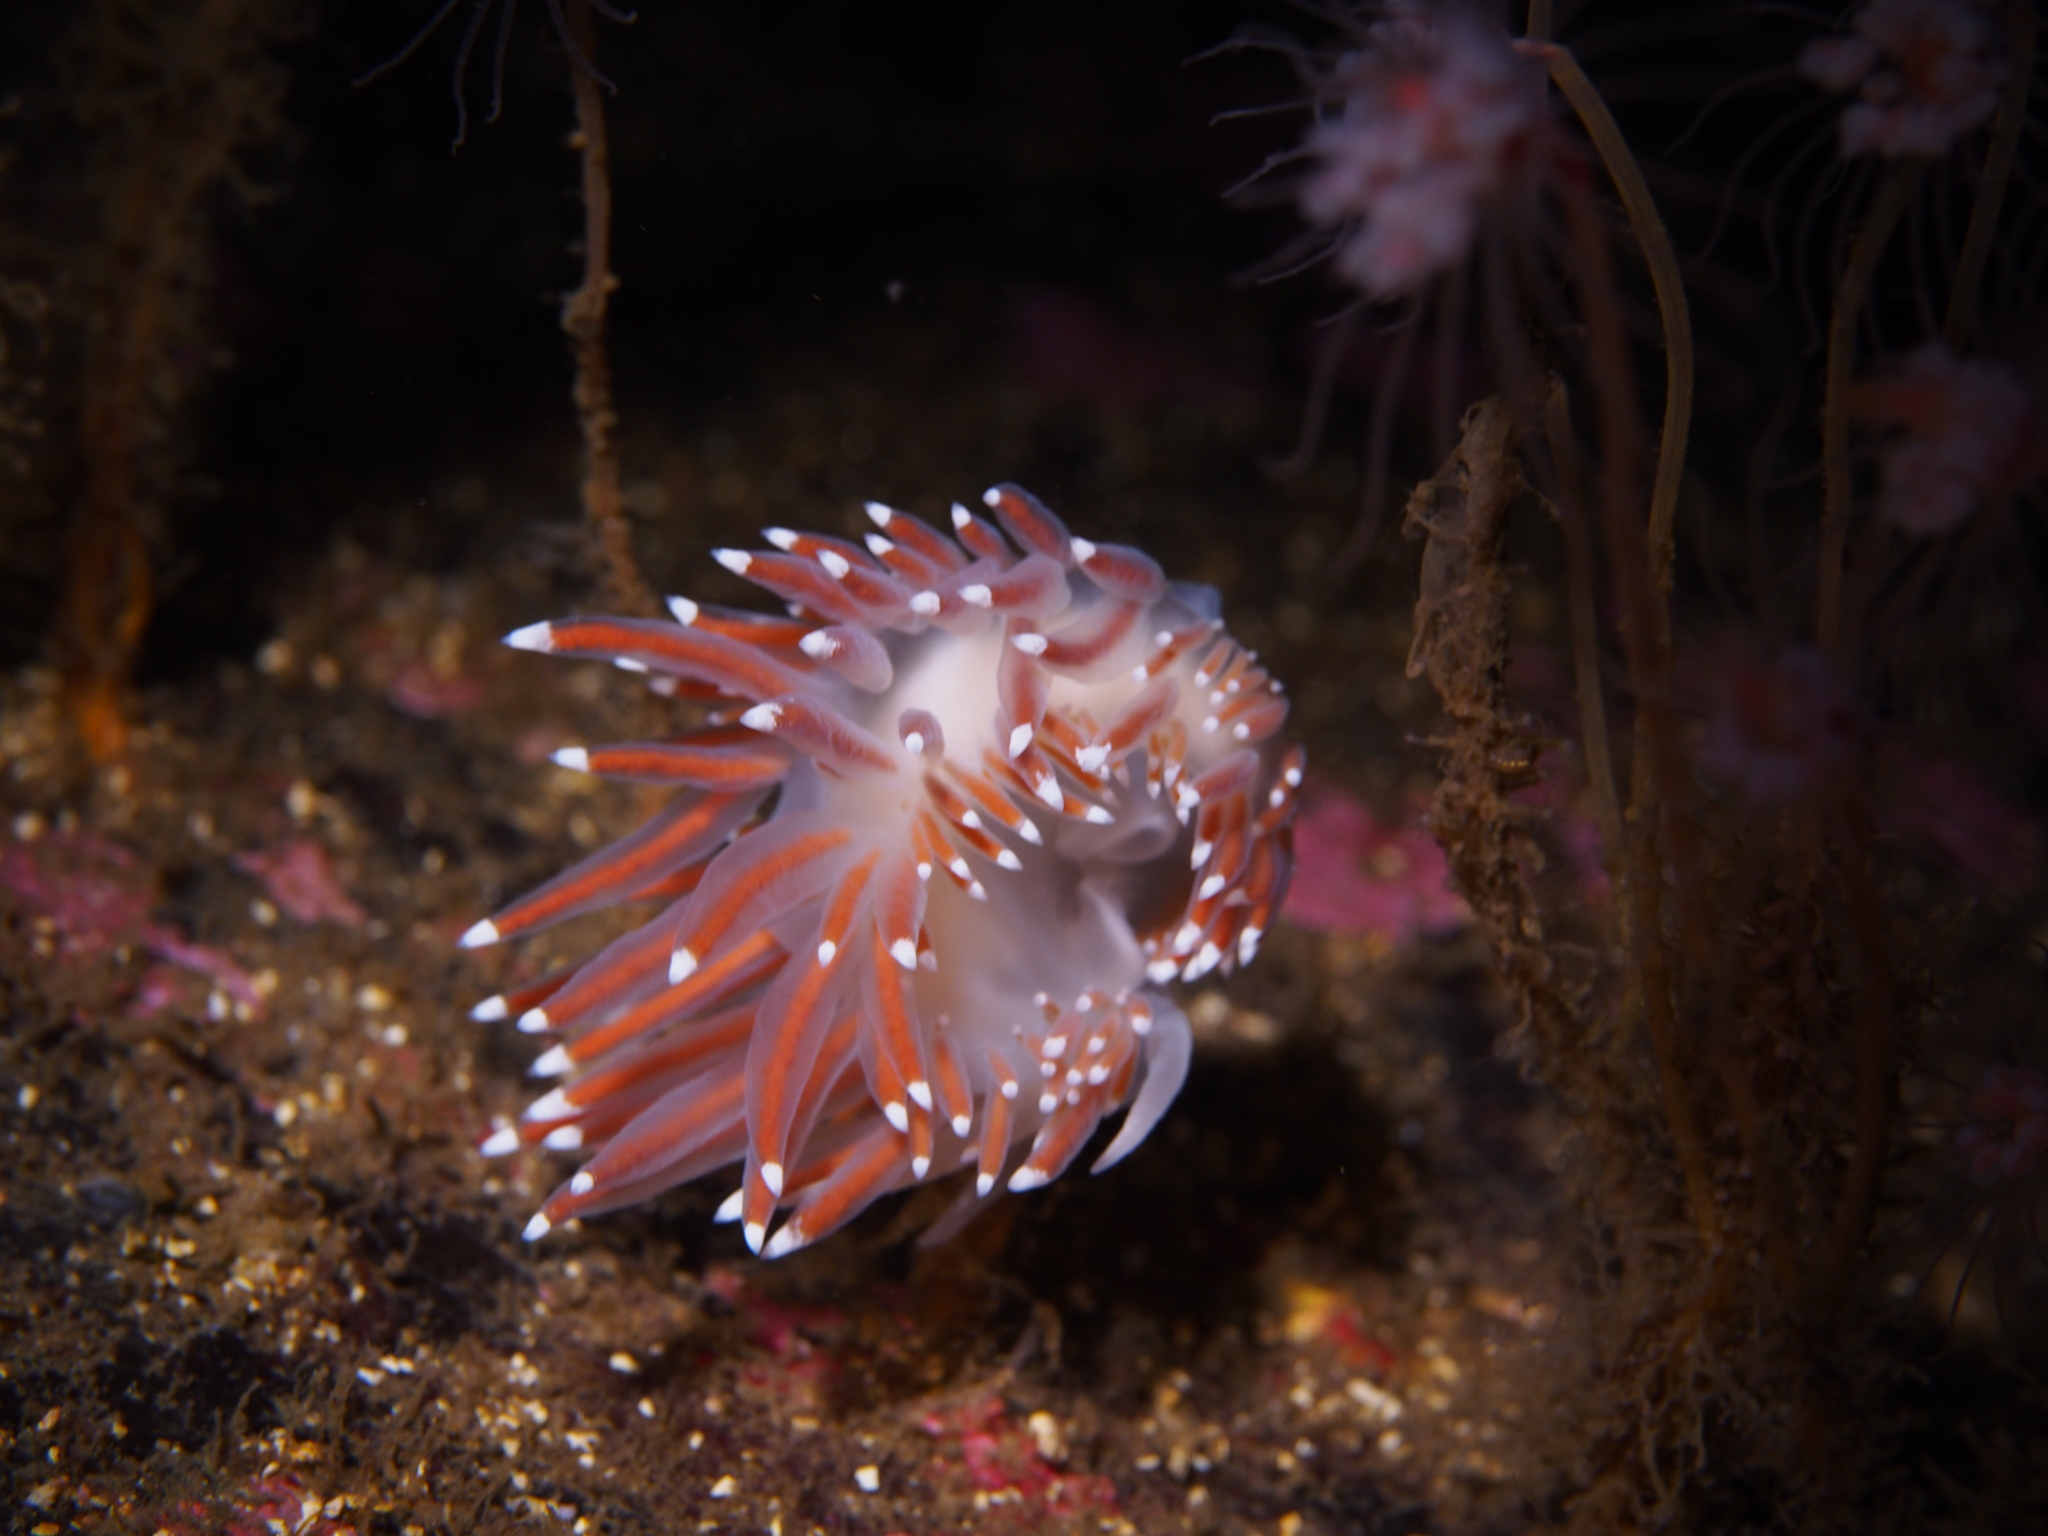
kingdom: Animalia
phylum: Mollusca
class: Gastropoda
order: Nudibranchia
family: Coryphellidae
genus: Coryphella
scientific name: Coryphella browni
